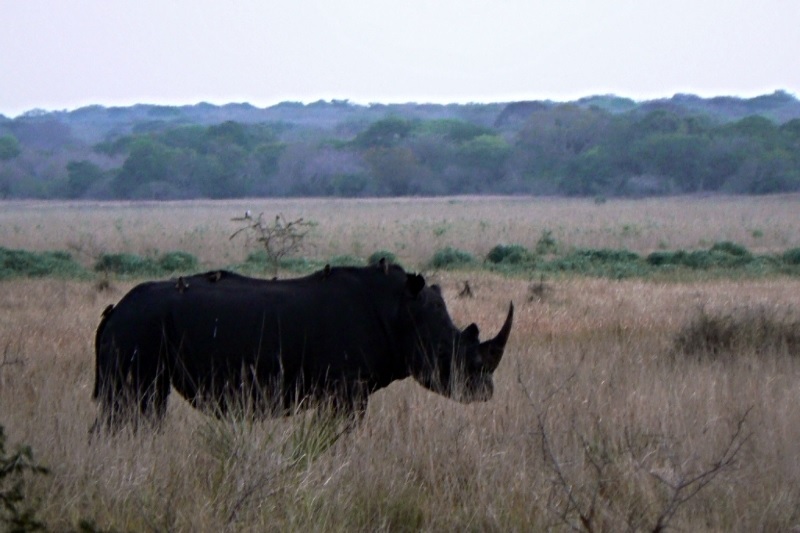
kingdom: Animalia
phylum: Chordata
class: Aves
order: Passeriformes
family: Buphagidae
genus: Buphagus
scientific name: Buphagus erythrorhynchus
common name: Red-billed oxpecker
